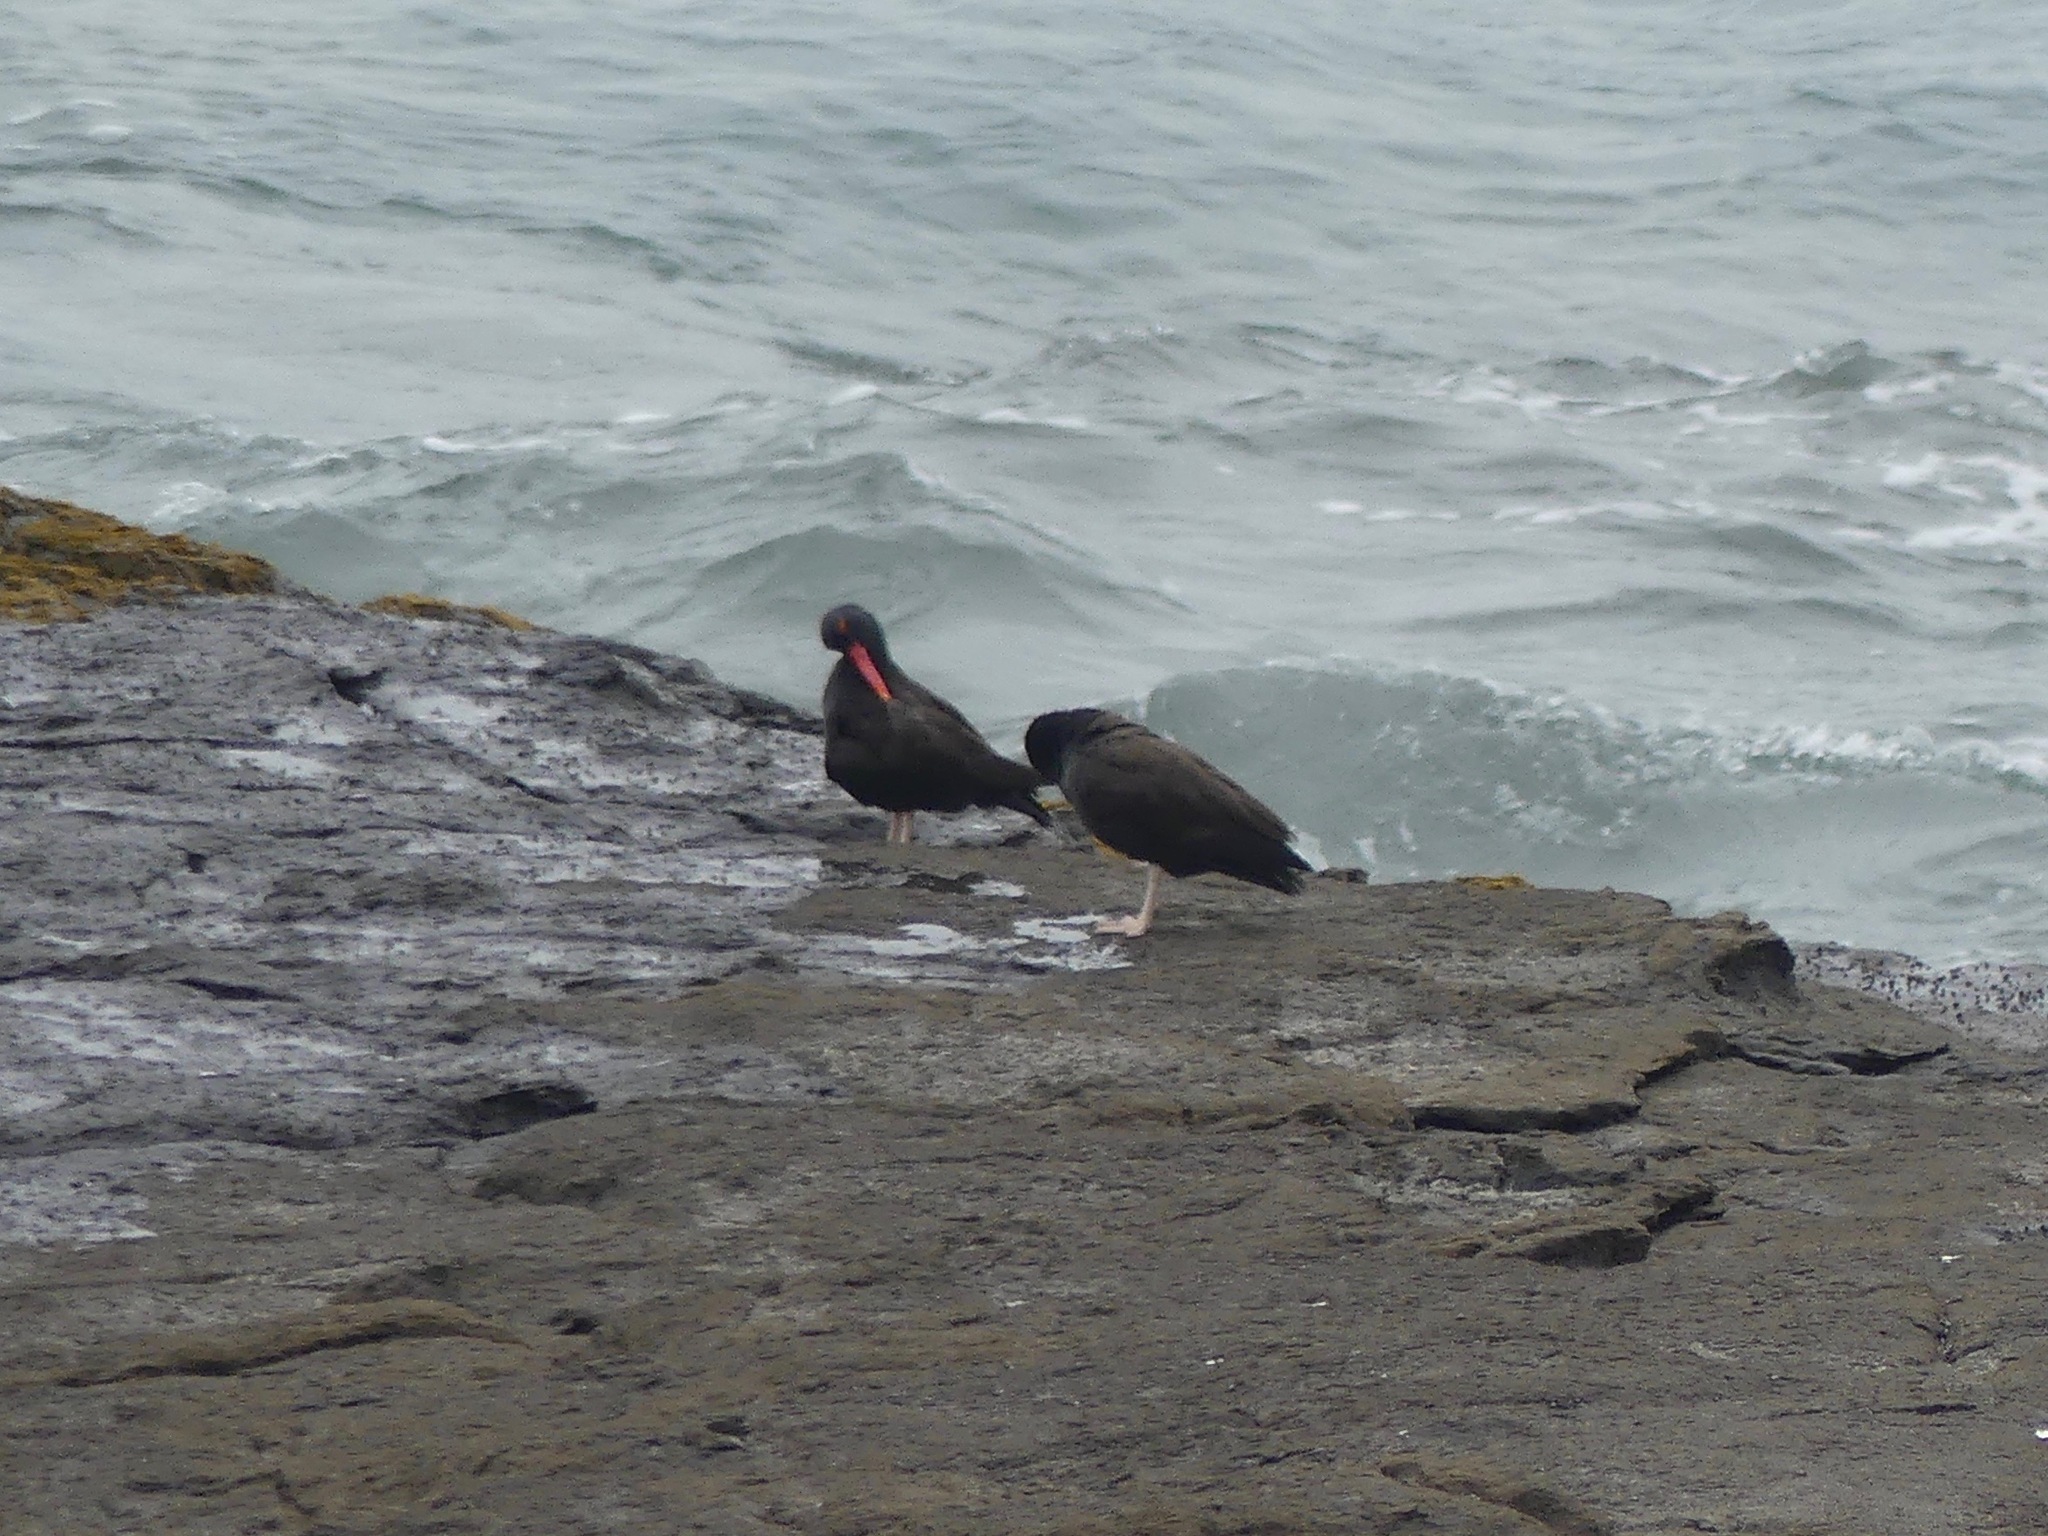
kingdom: Animalia
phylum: Chordata
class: Aves
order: Charadriiformes
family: Haematopodidae
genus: Haematopus
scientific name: Haematopus ater
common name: Blackish oystercatcher
